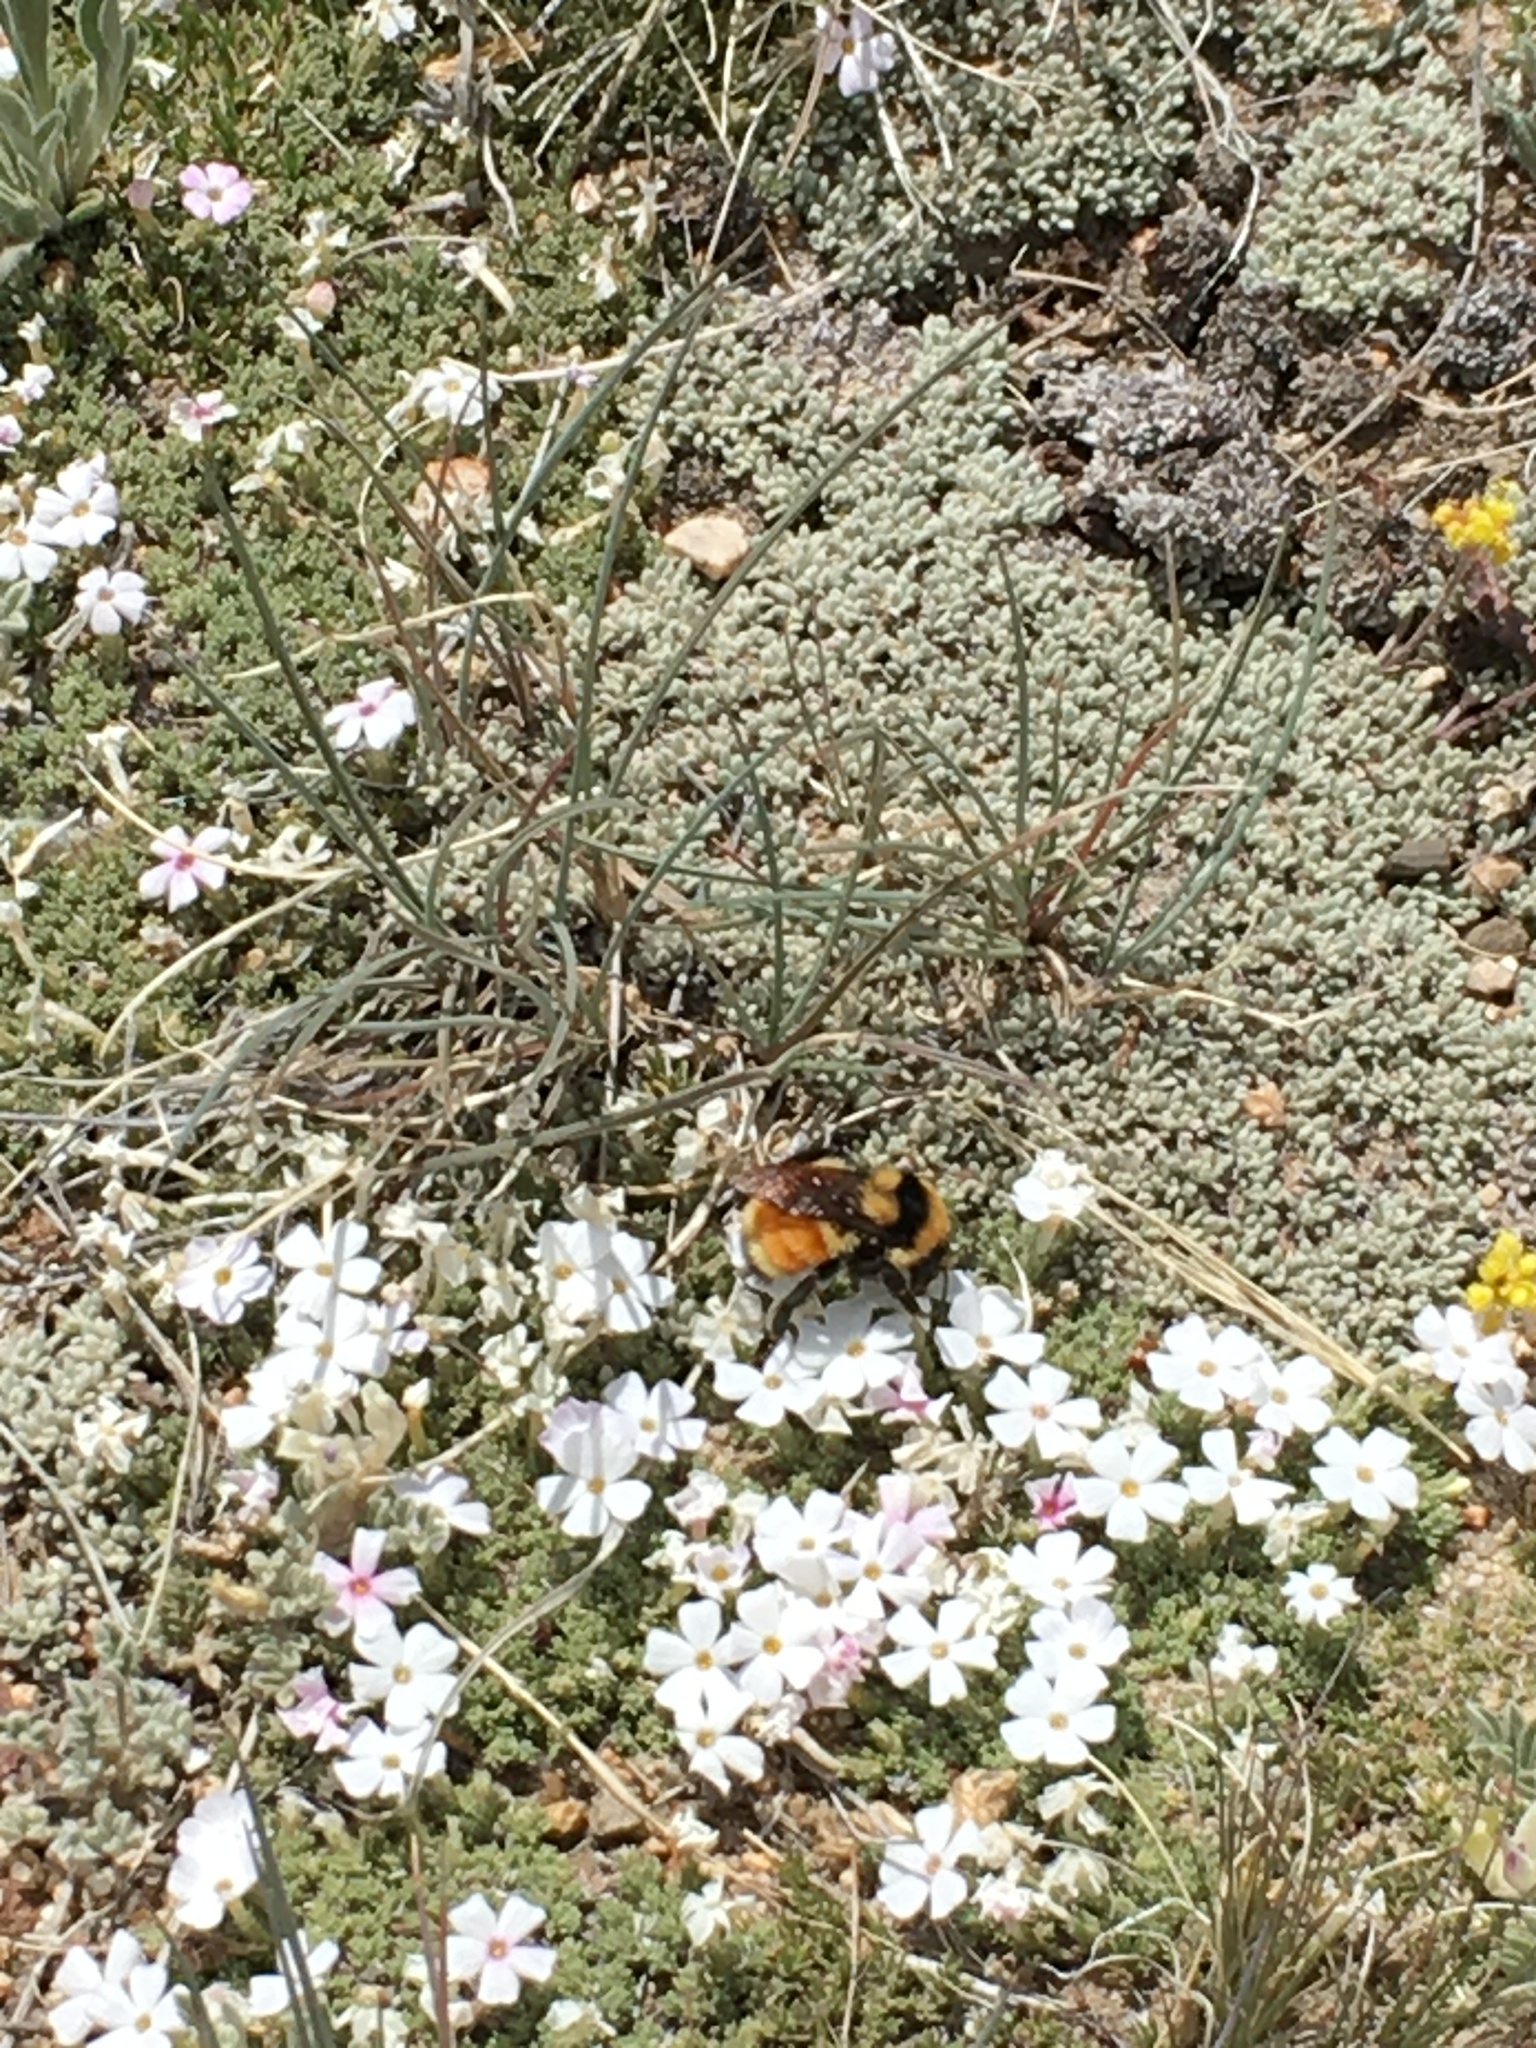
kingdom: Animalia
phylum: Arthropoda
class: Insecta
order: Hymenoptera
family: Apidae
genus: Bombus
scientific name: Bombus huntii
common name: Hunt bumble bee
